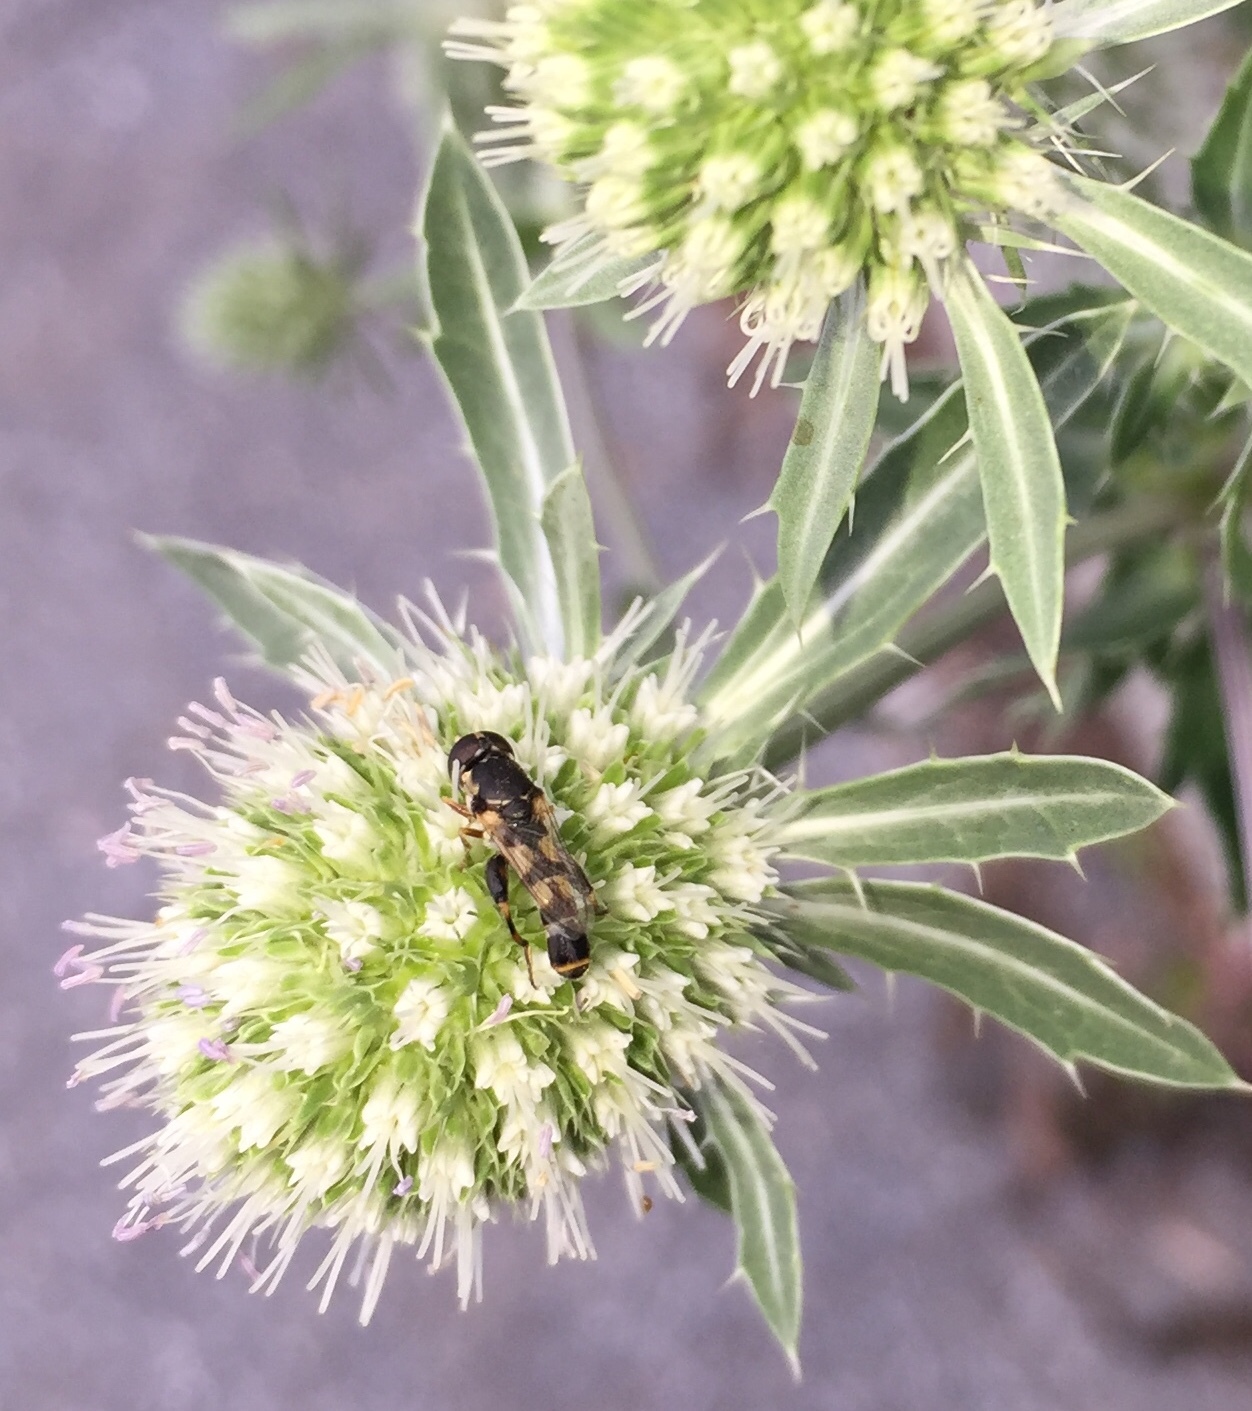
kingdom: Animalia
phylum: Arthropoda
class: Insecta
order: Diptera
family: Syrphidae
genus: Syritta
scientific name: Syritta pipiens
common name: Hover fly
